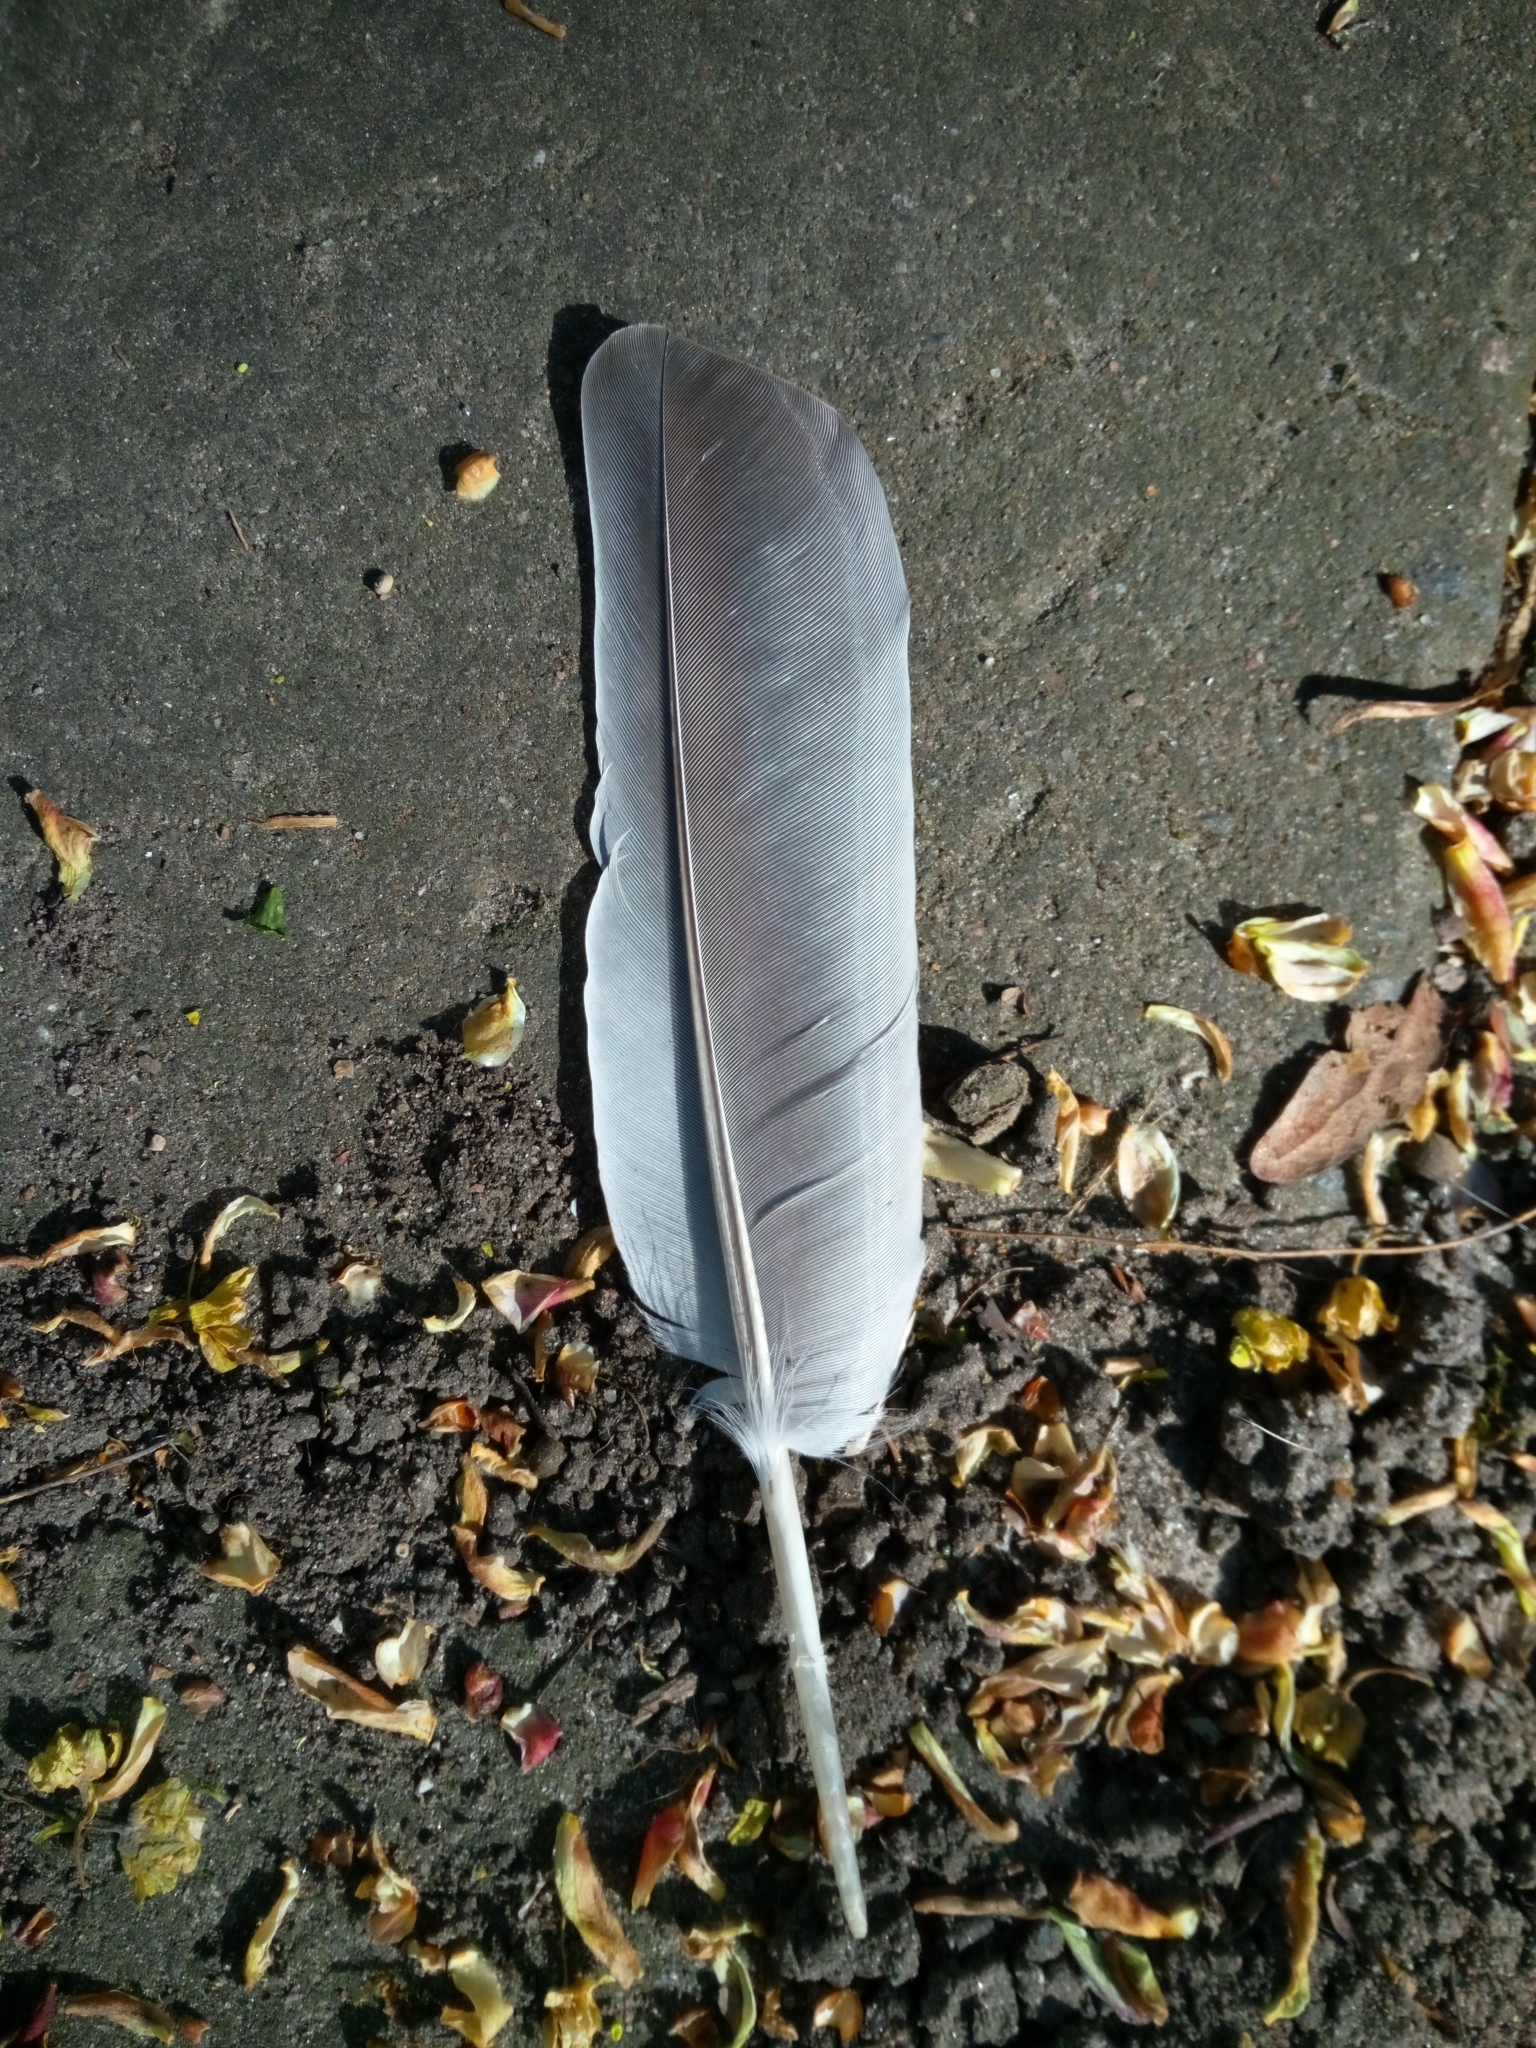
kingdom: Animalia
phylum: Chordata
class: Aves
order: Columbiformes
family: Columbidae
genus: Columba
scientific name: Columba palumbus
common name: Common wood pigeon
